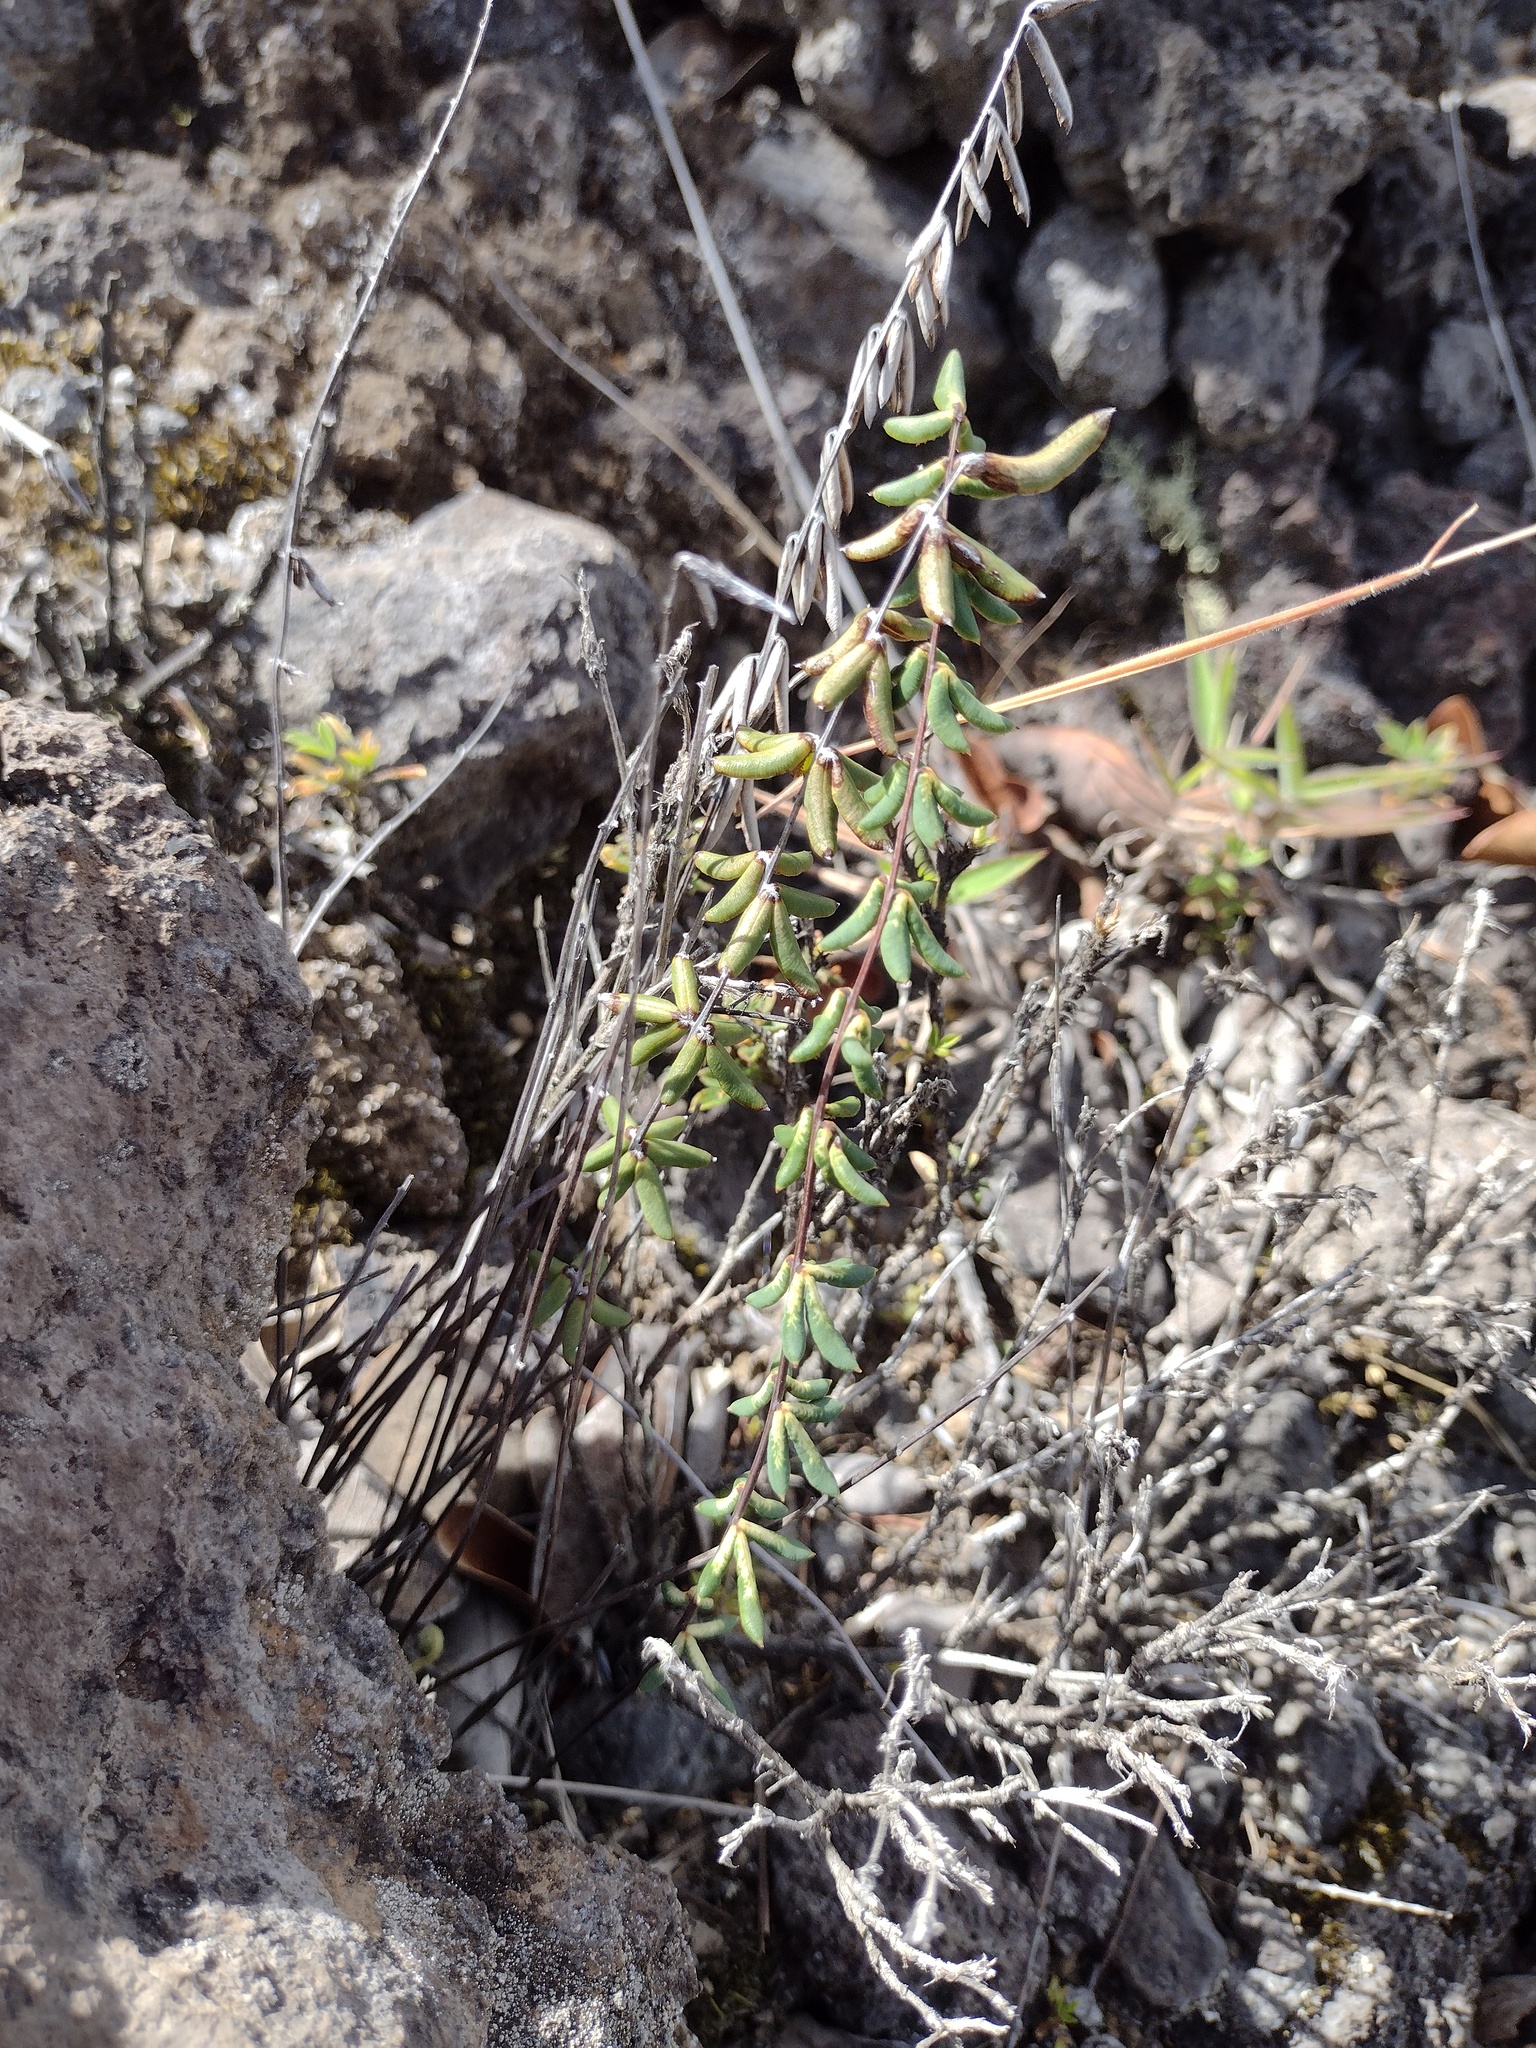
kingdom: Plantae
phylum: Tracheophyta
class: Polypodiopsida
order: Polypodiales
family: Pteridaceae
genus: Pellaea
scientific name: Pellaea ternifolia
